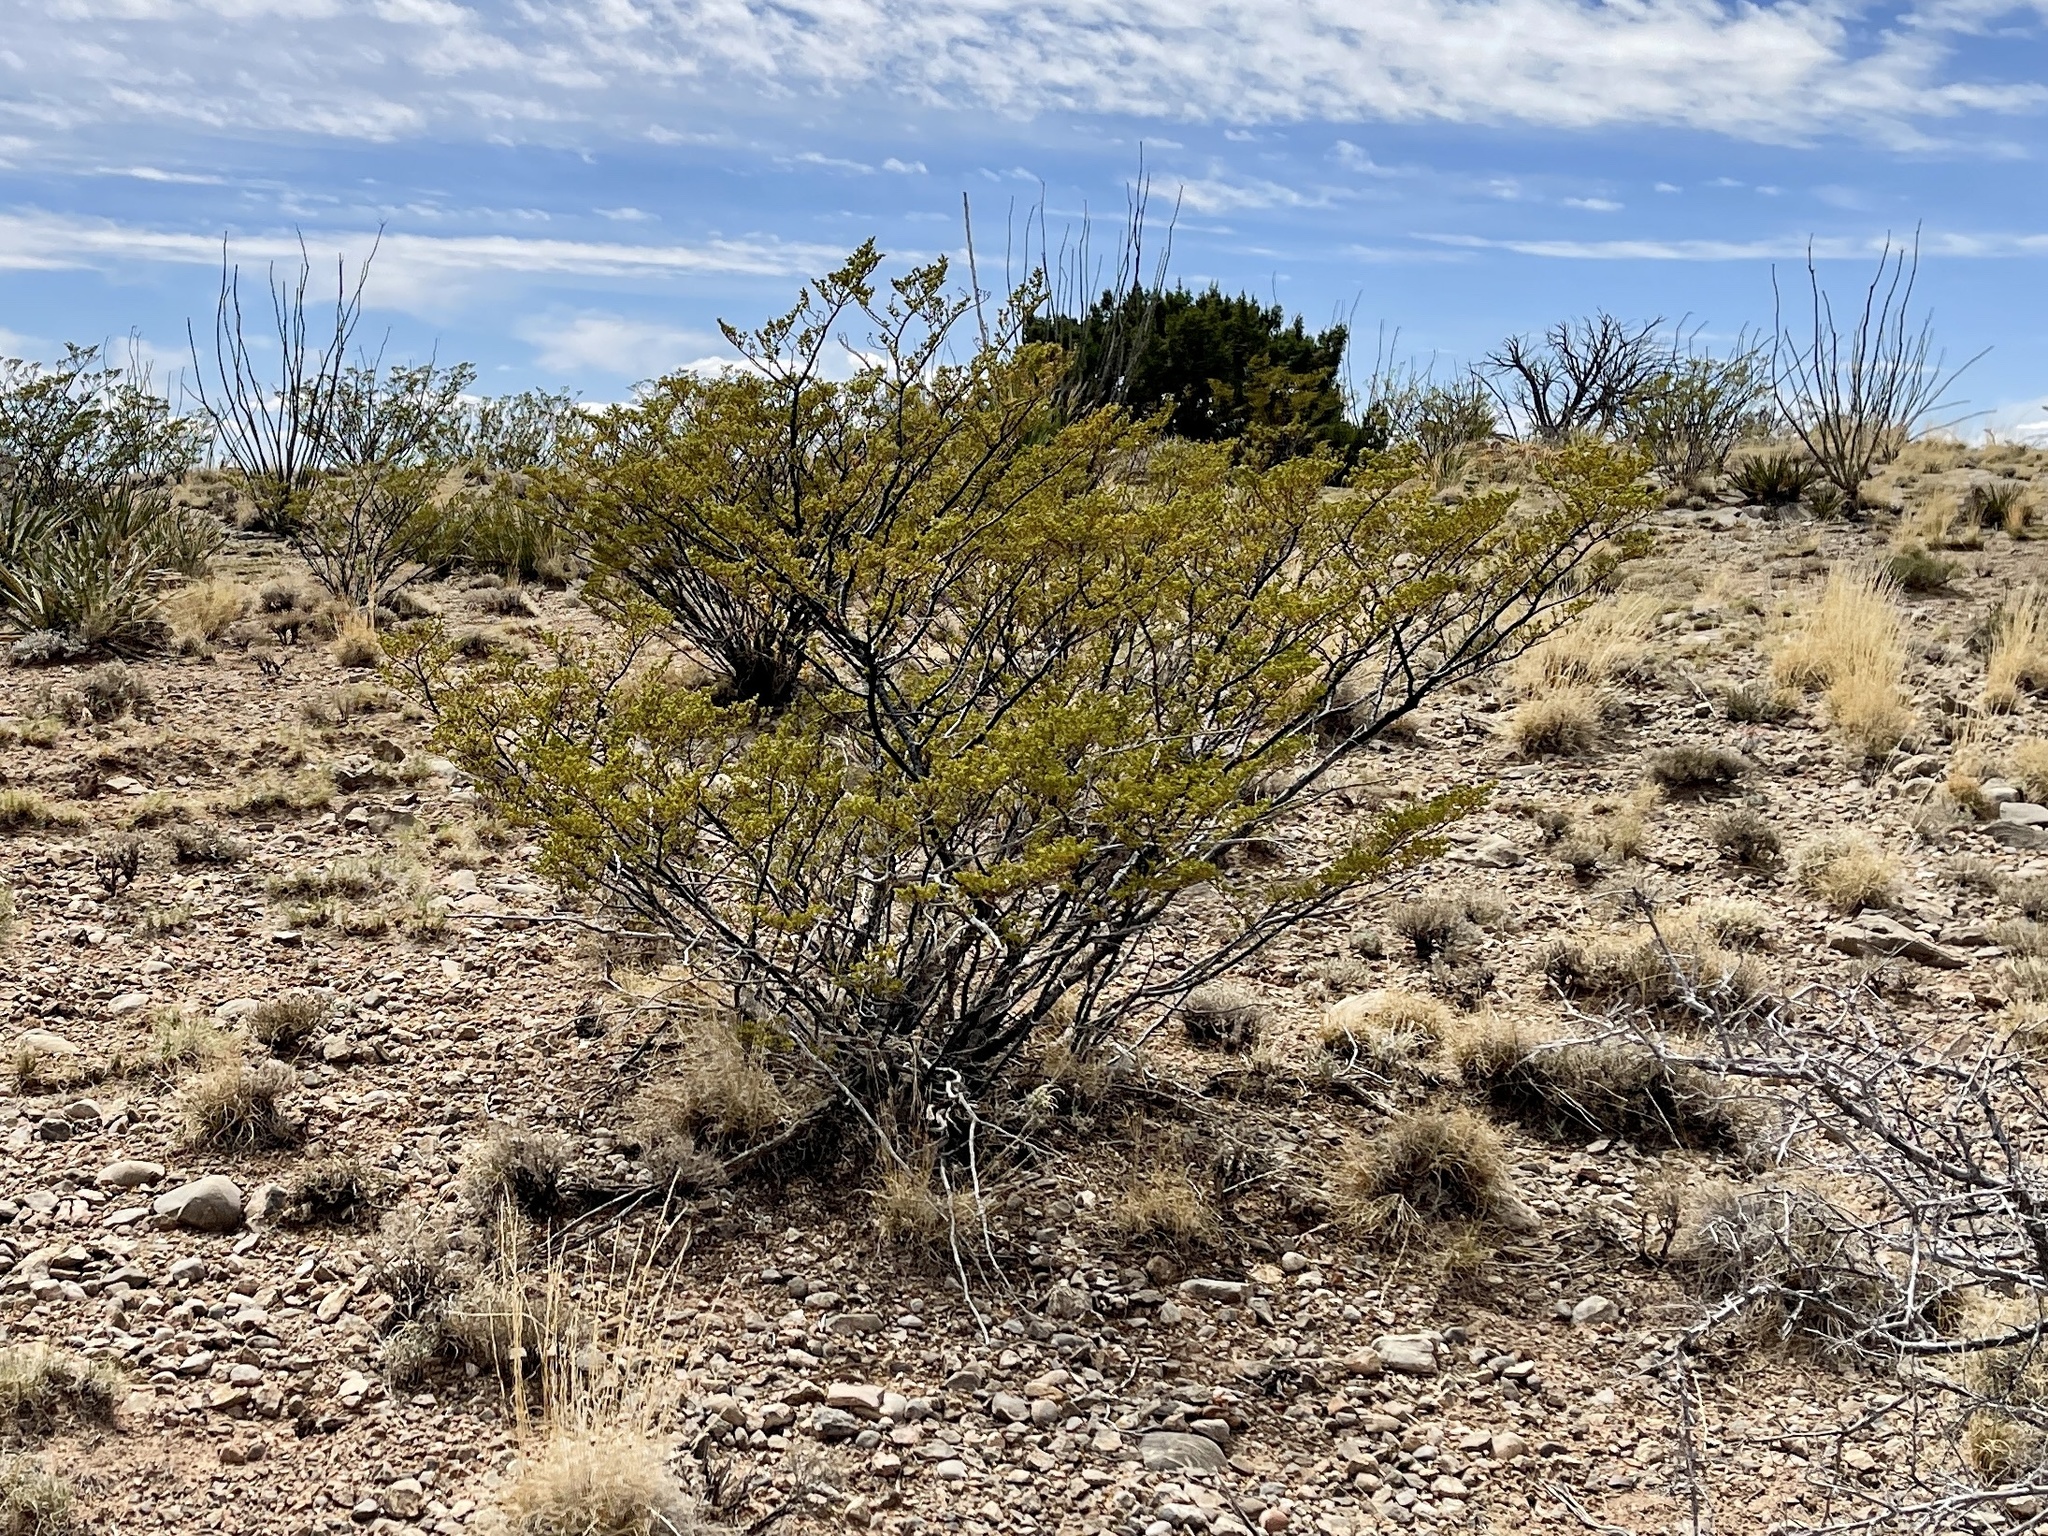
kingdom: Plantae
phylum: Tracheophyta
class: Magnoliopsida
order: Zygophyllales
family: Zygophyllaceae
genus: Larrea
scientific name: Larrea tridentata
